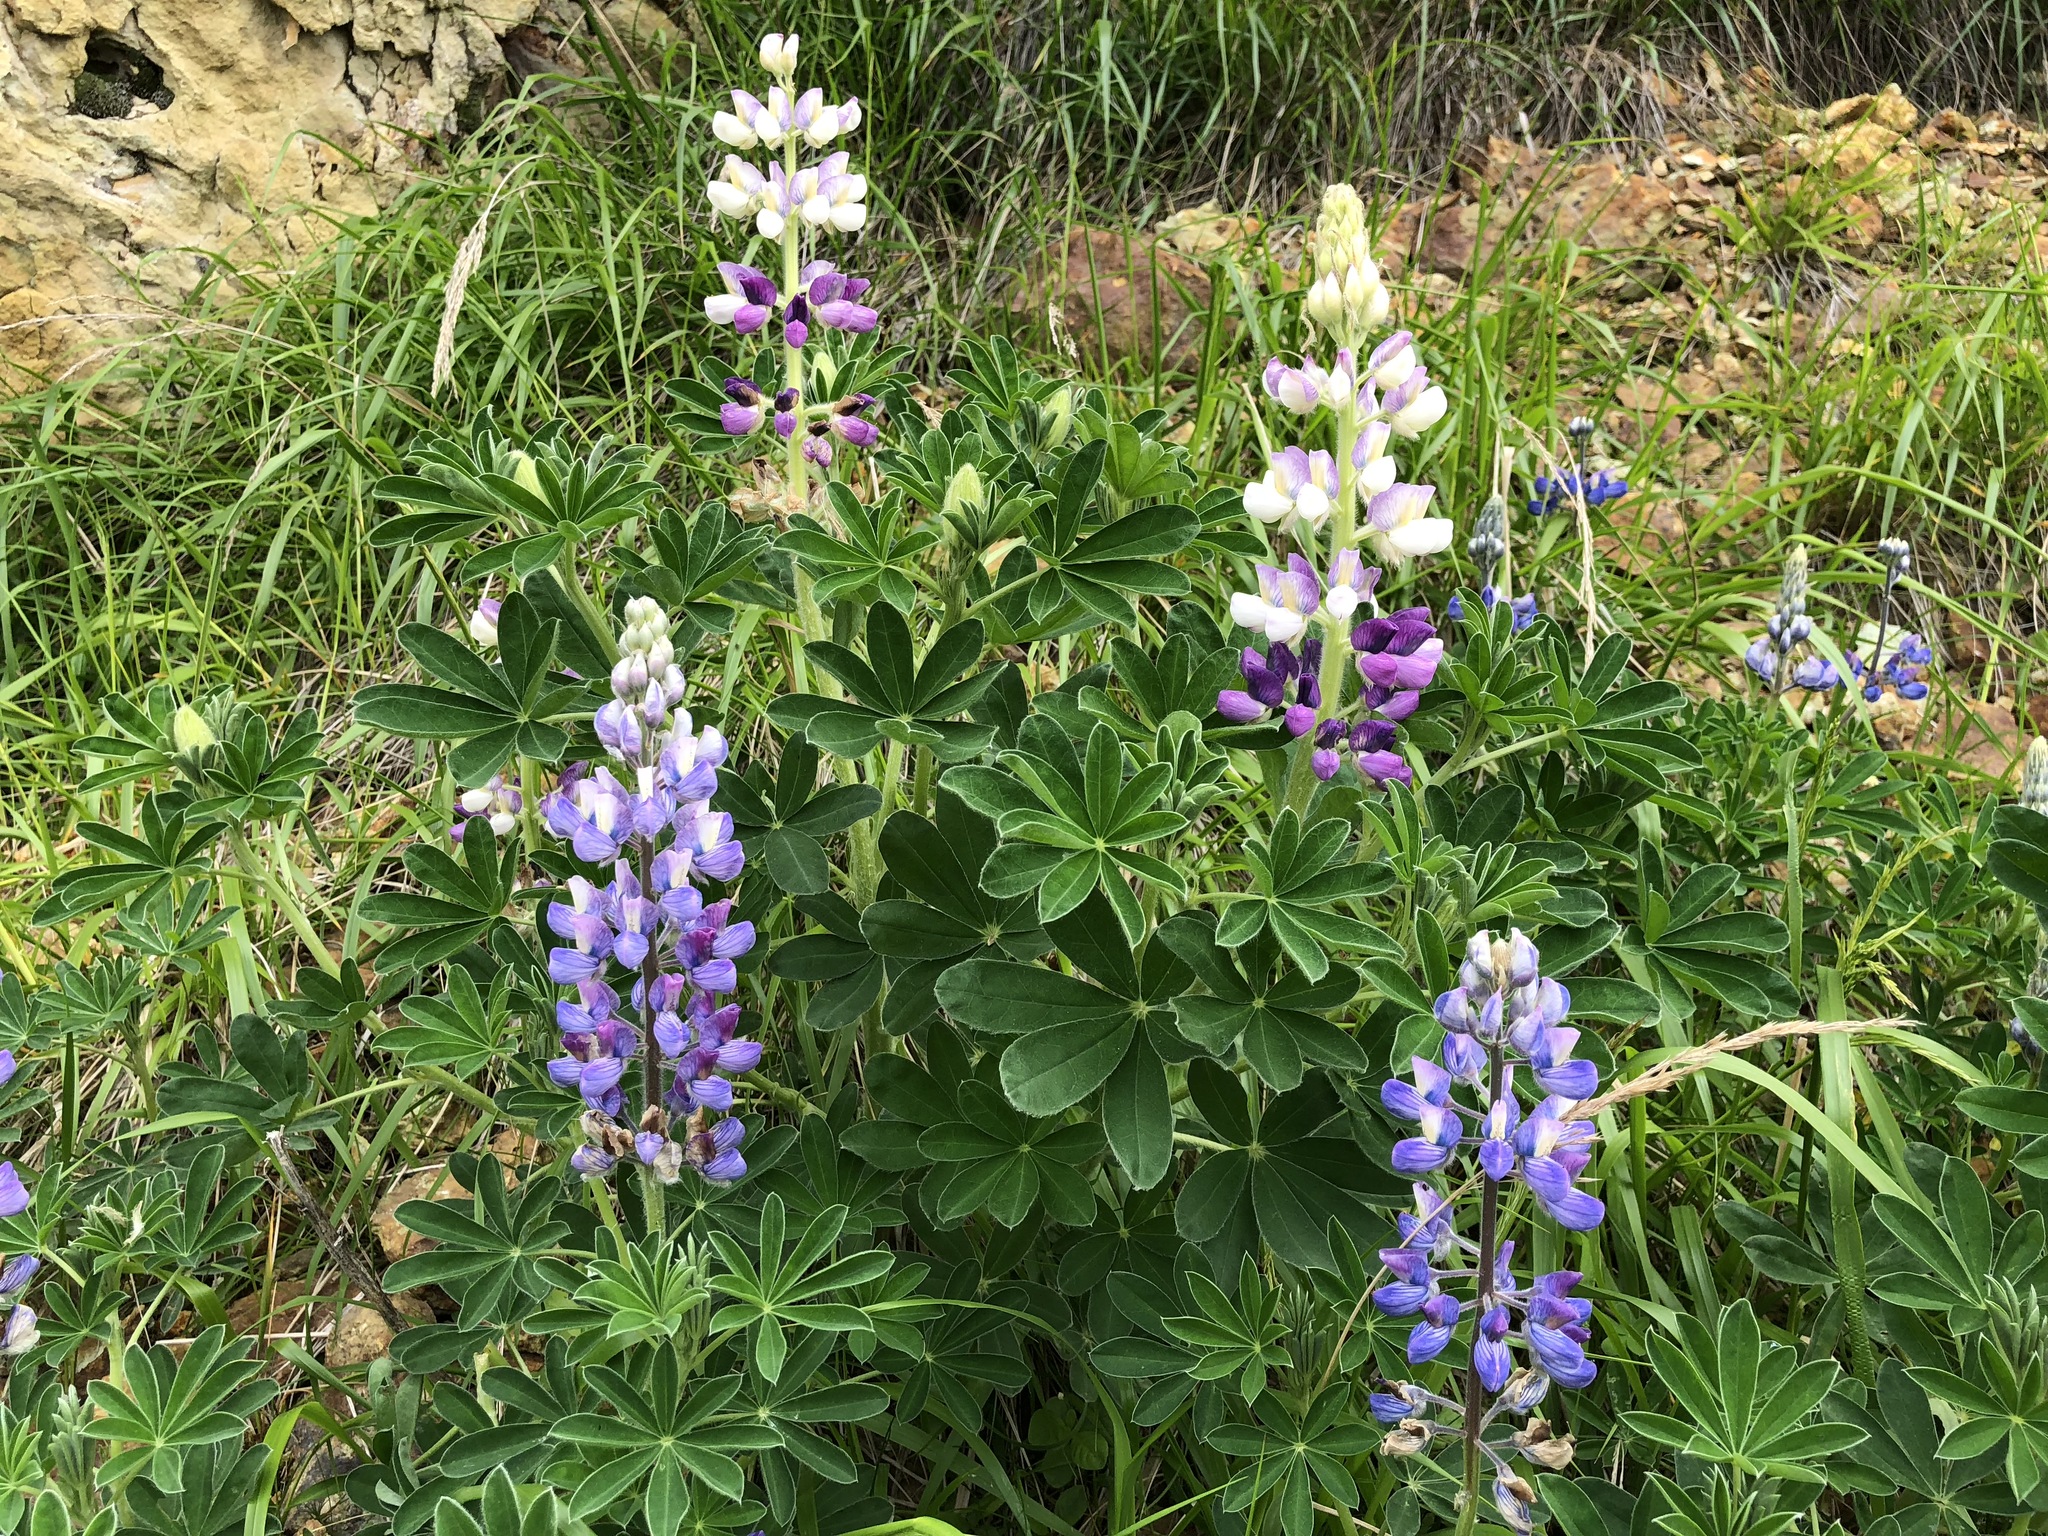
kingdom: Plantae
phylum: Tracheophyta
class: Magnoliopsida
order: Fabales
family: Fabaceae
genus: Lupinus
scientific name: Lupinus nootkatensis
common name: Nootka lupine
